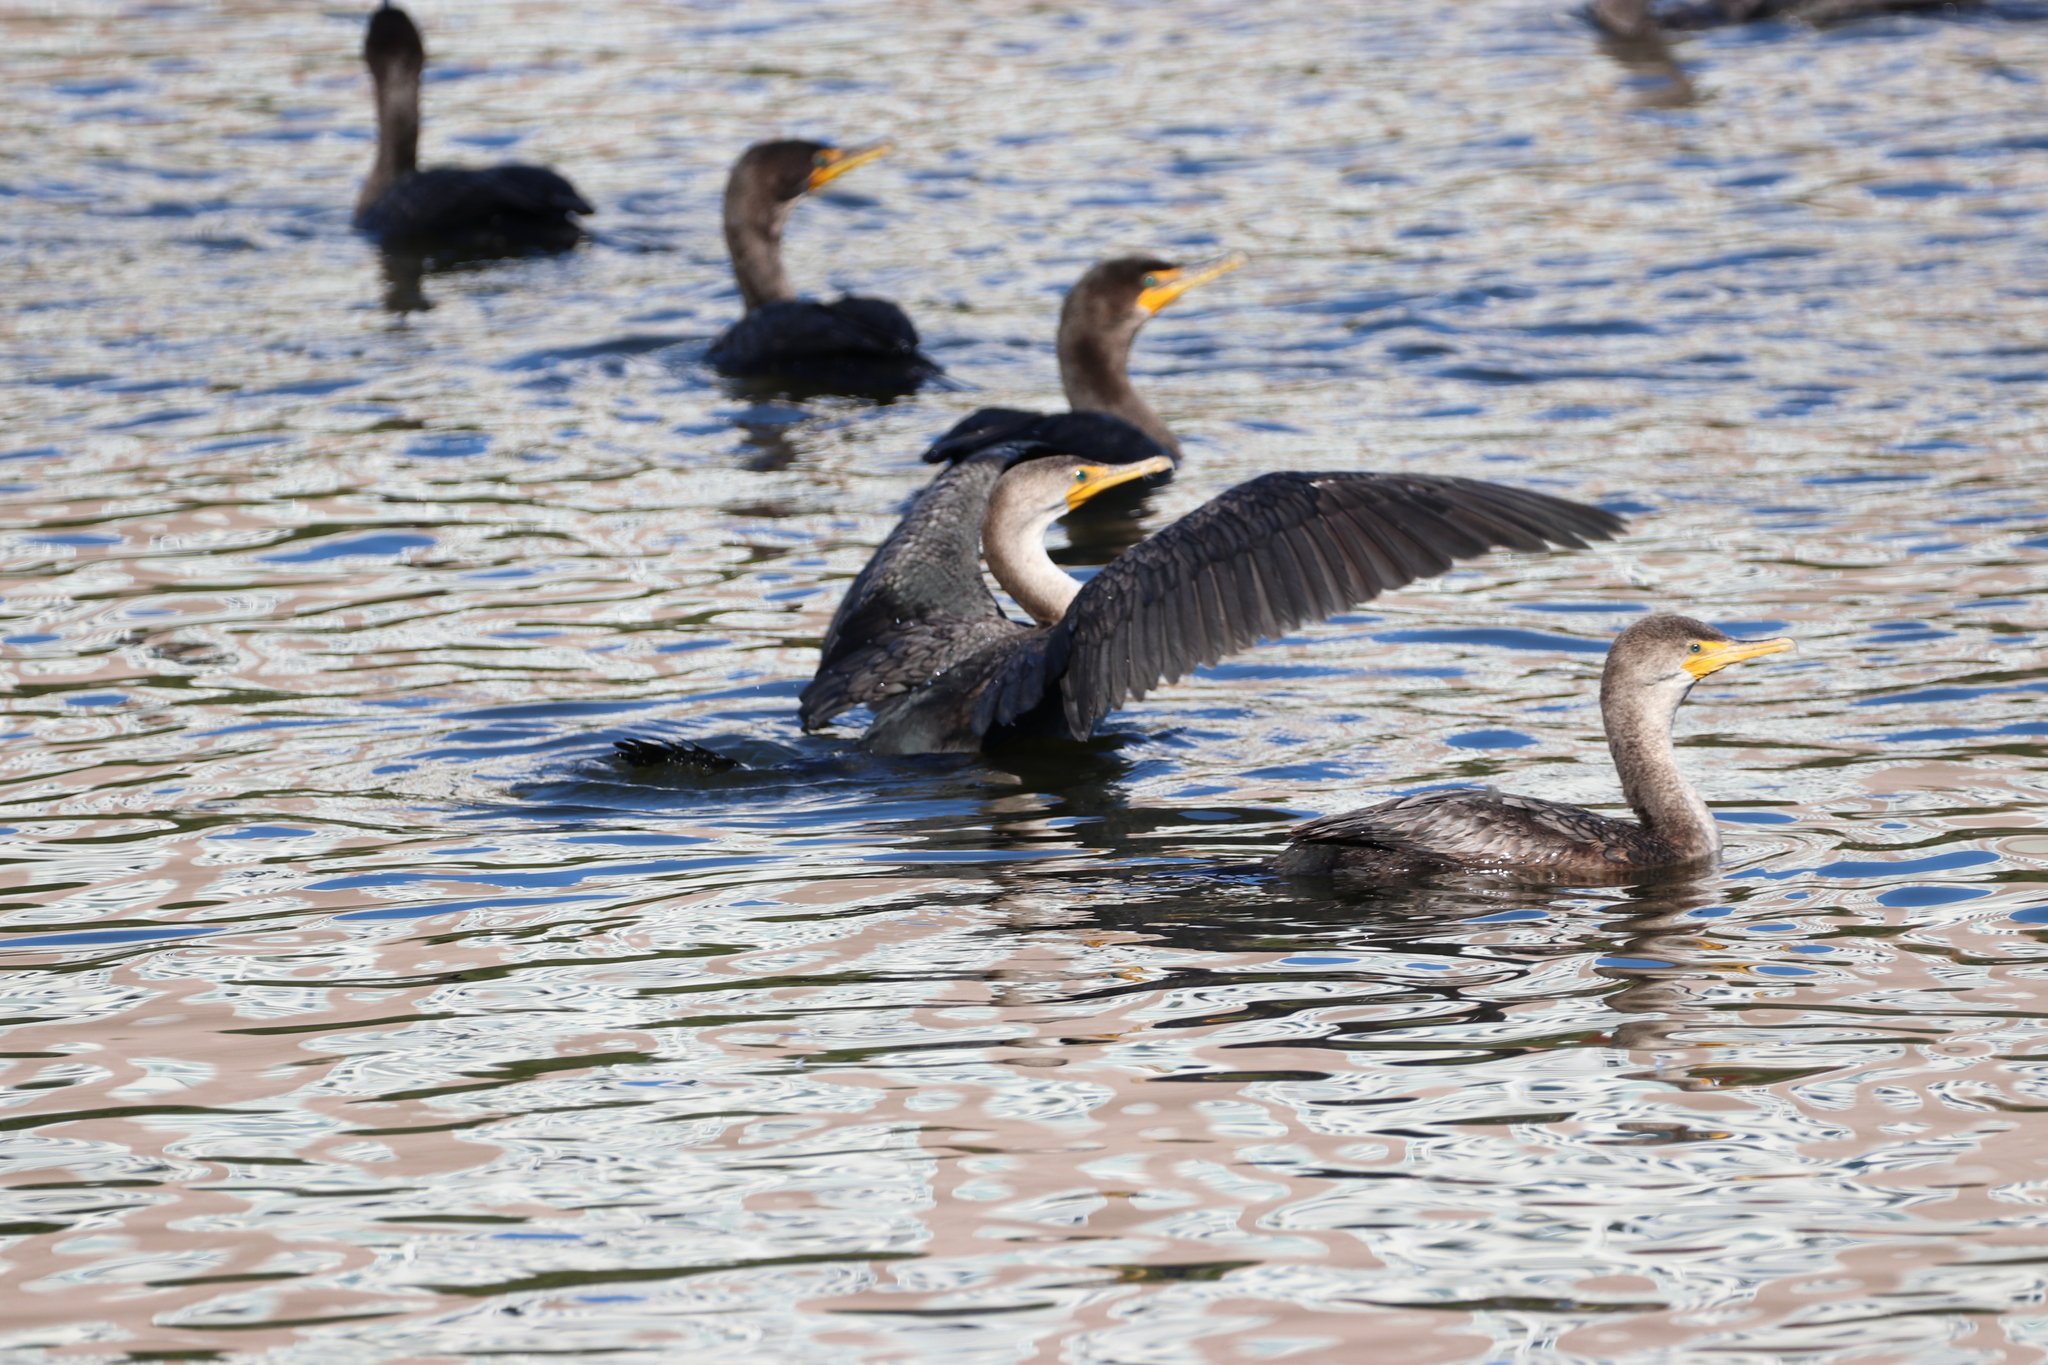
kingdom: Animalia
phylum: Chordata
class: Aves
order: Suliformes
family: Phalacrocoracidae
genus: Phalacrocorax
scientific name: Phalacrocorax auritus
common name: Double-crested cormorant
